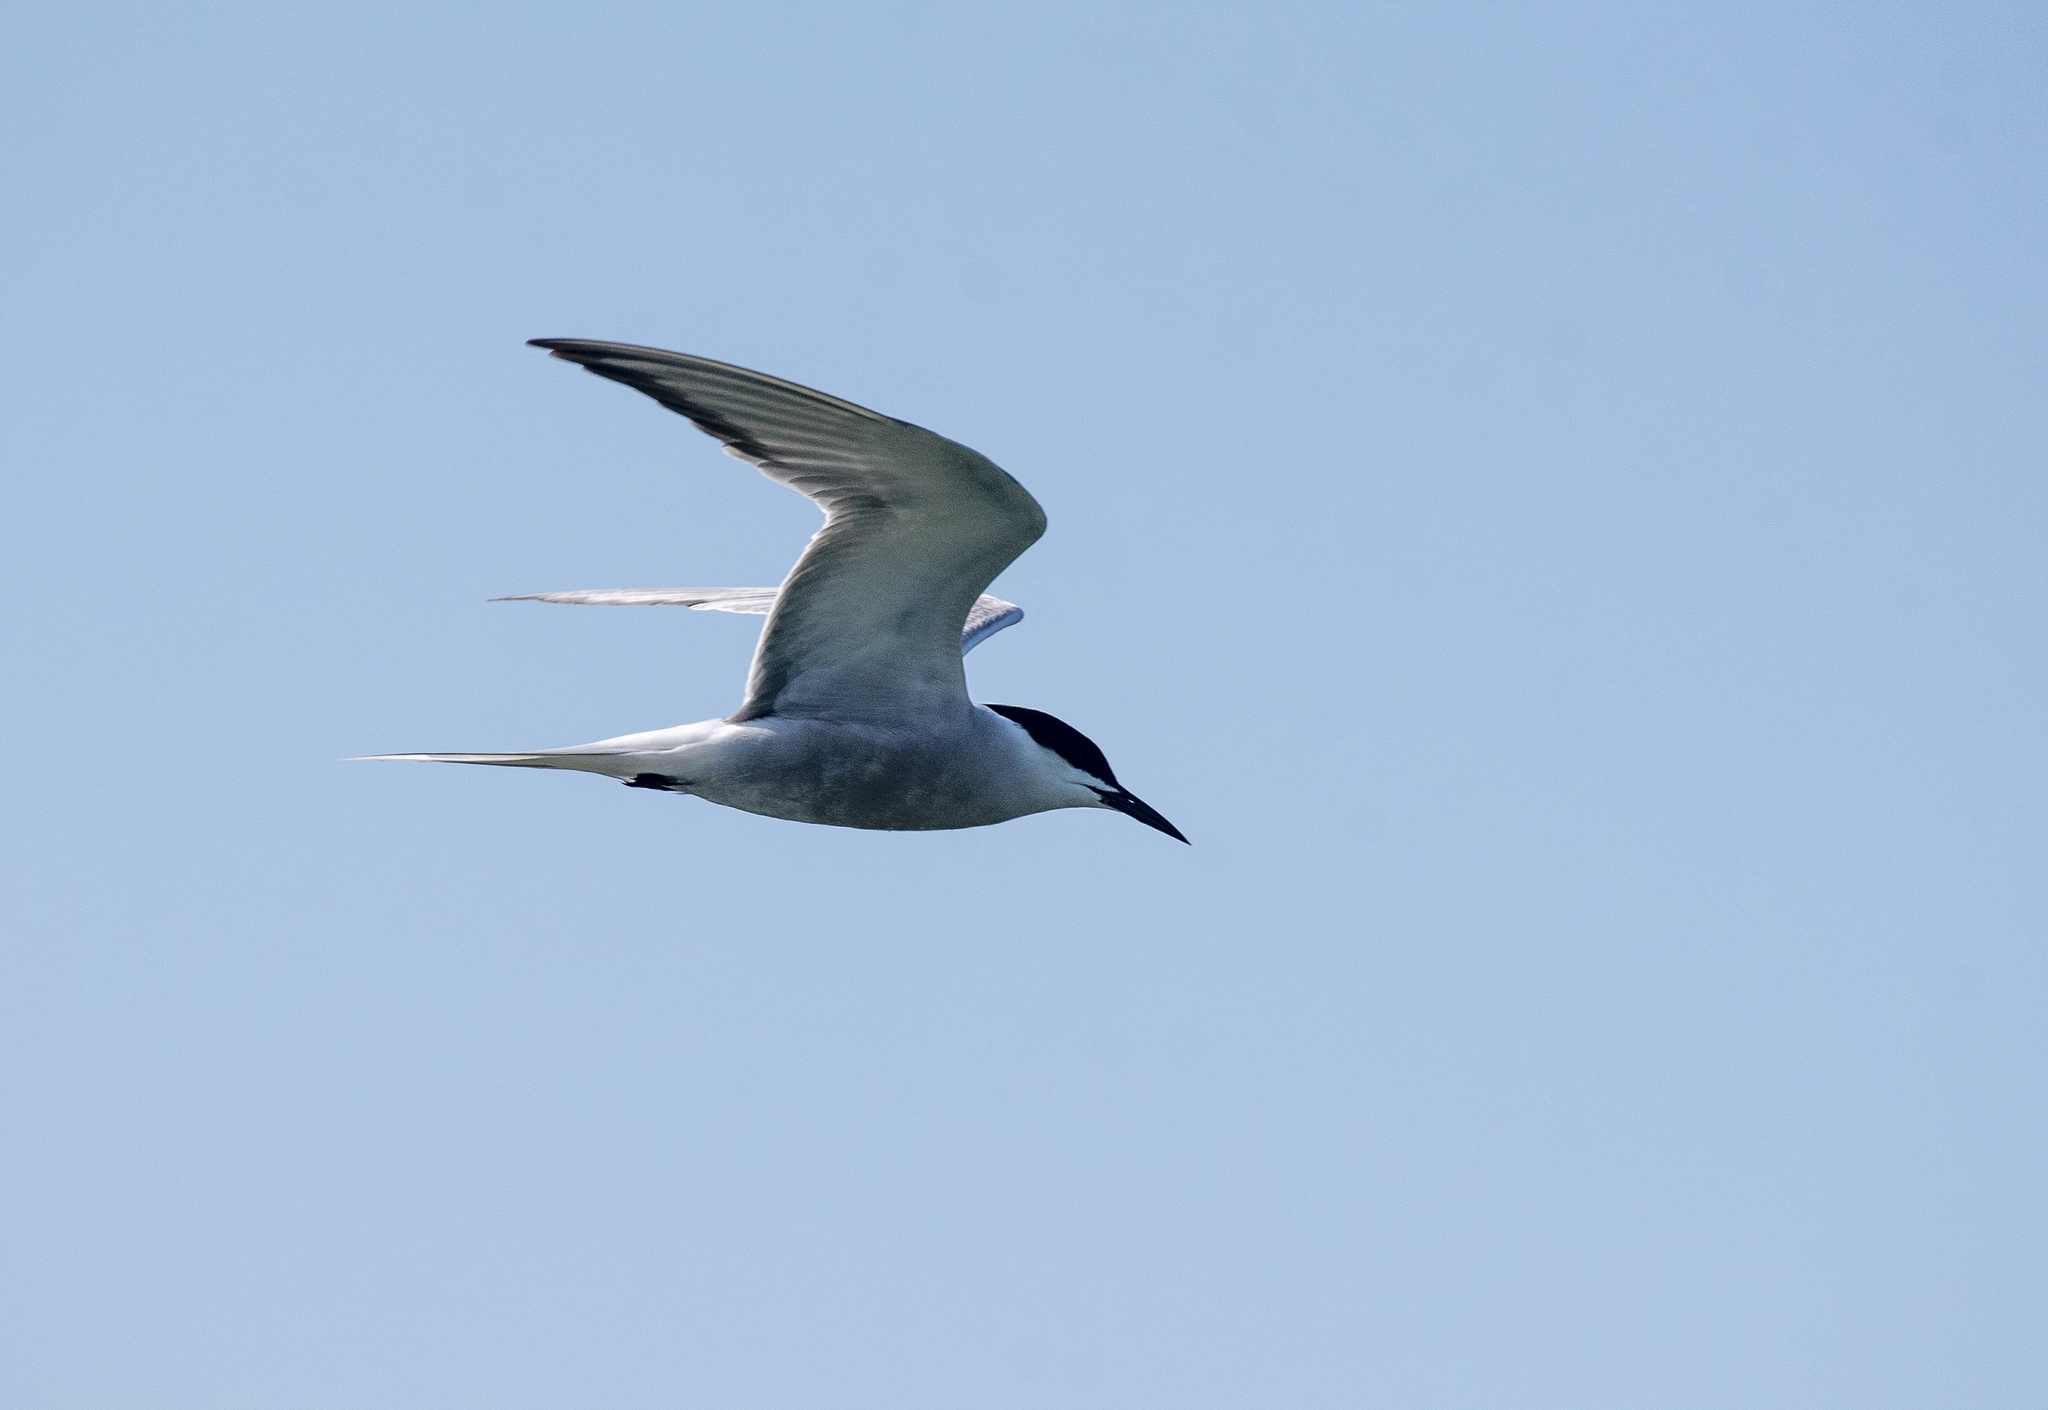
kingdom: Animalia
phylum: Chordata
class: Aves
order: Charadriiformes
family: Laridae
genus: Sterna
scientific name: Sterna hirundo
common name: Common tern
